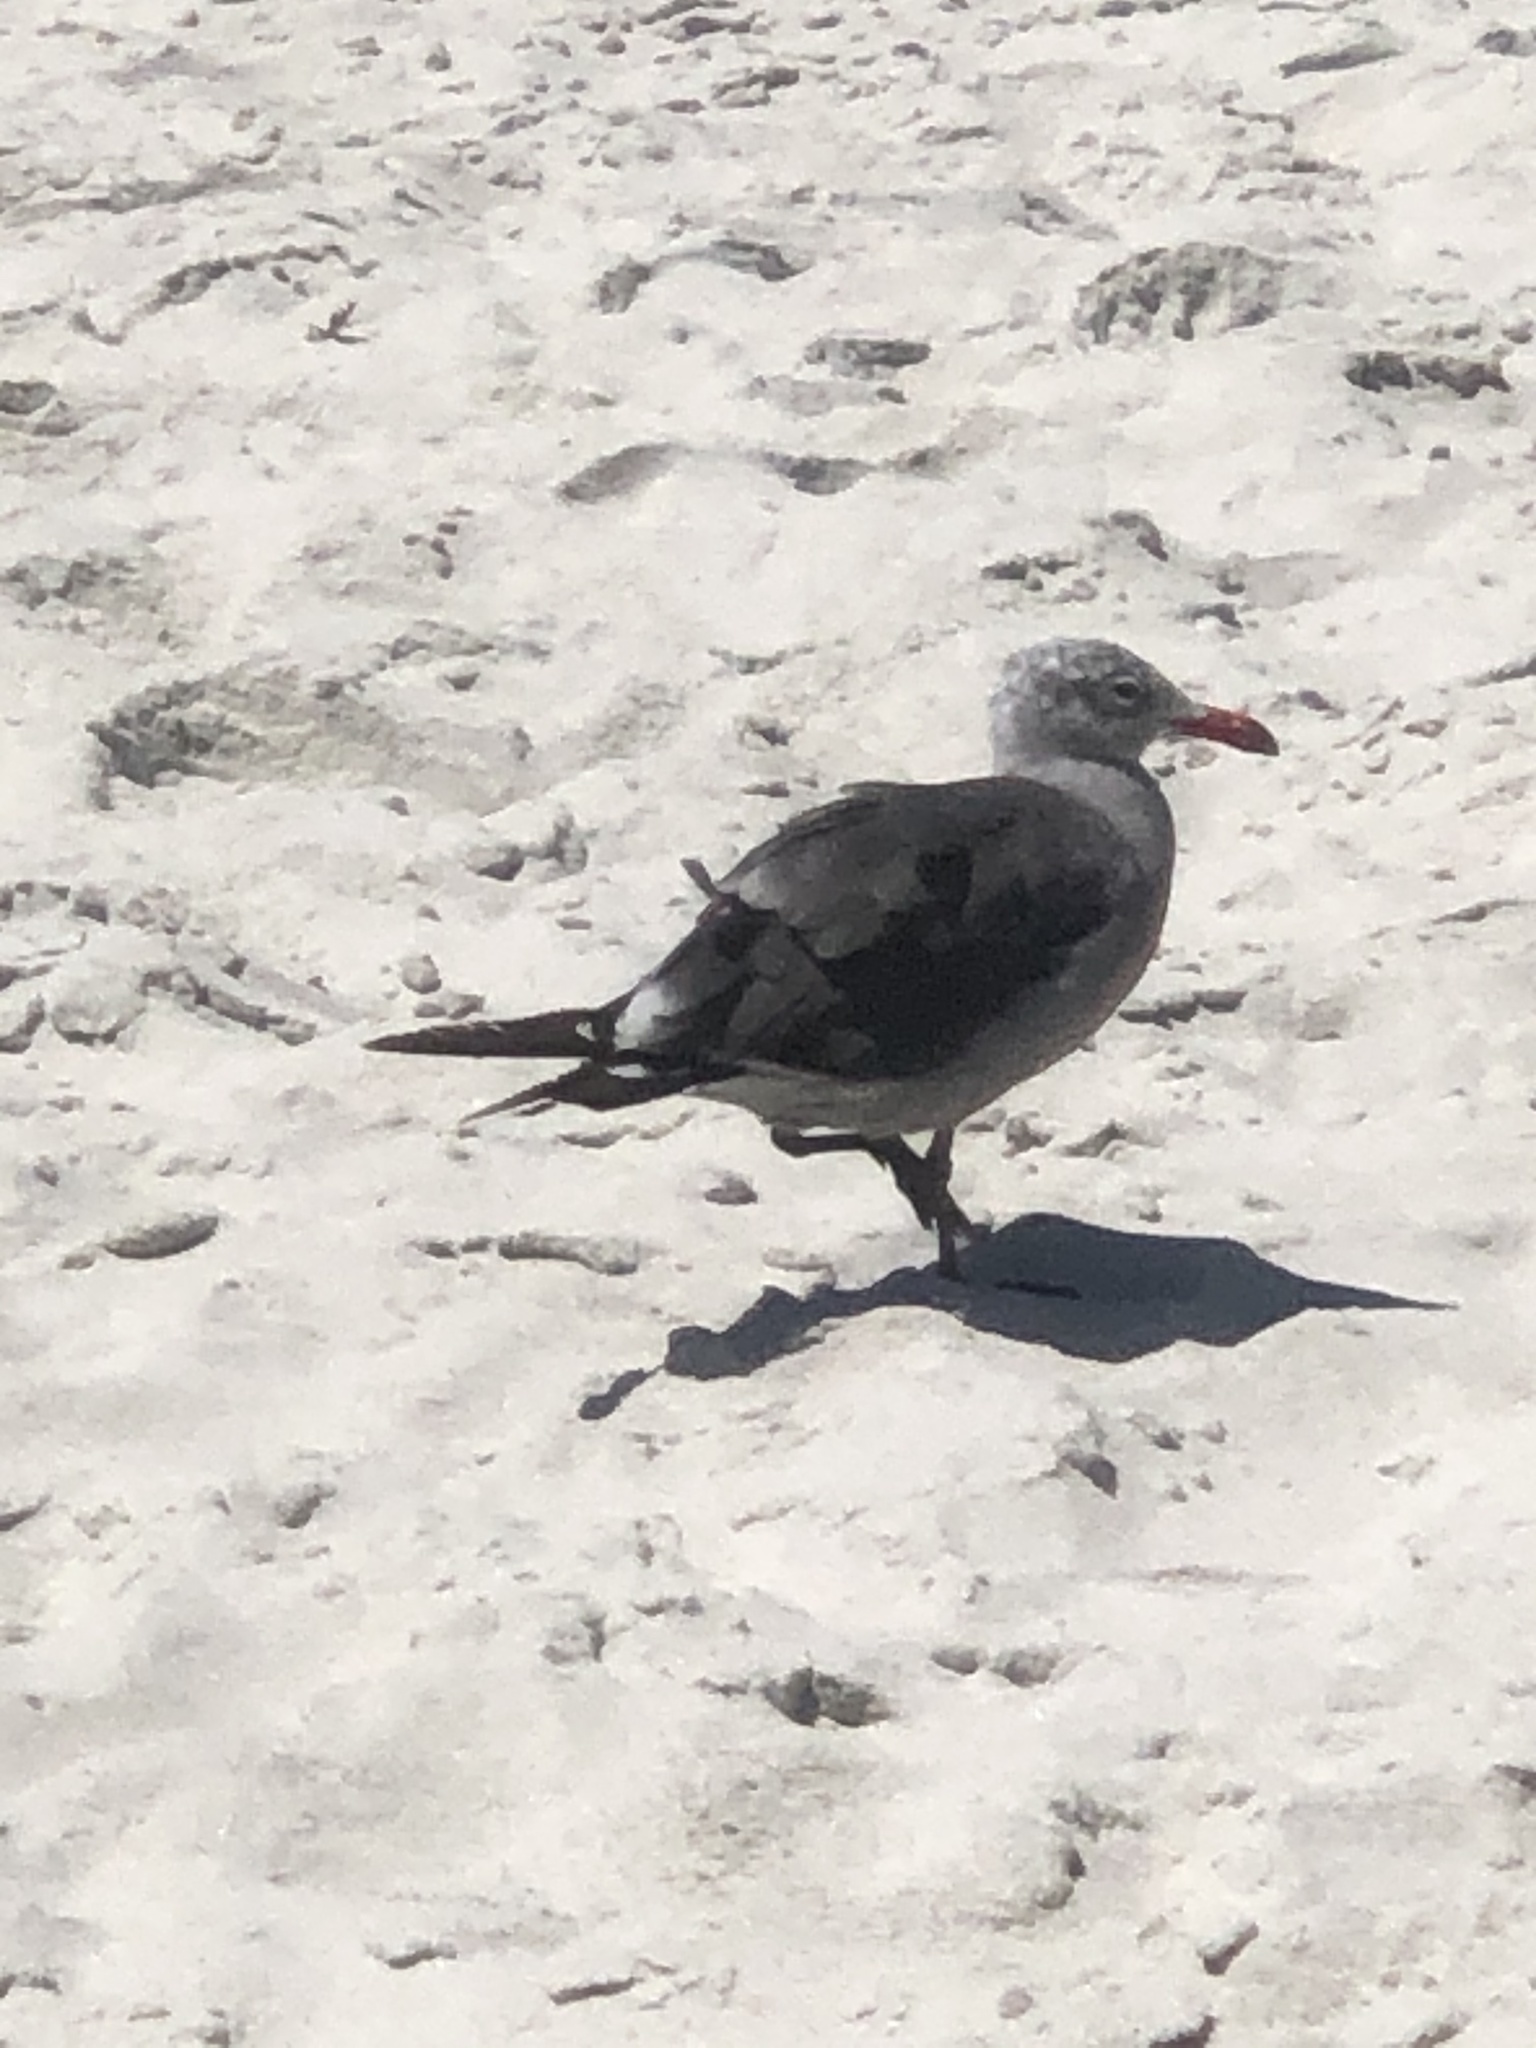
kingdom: Animalia
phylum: Chordata
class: Aves
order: Charadriiformes
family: Laridae
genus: Larus
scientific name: Larus heermanni
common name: Heermann's gull
